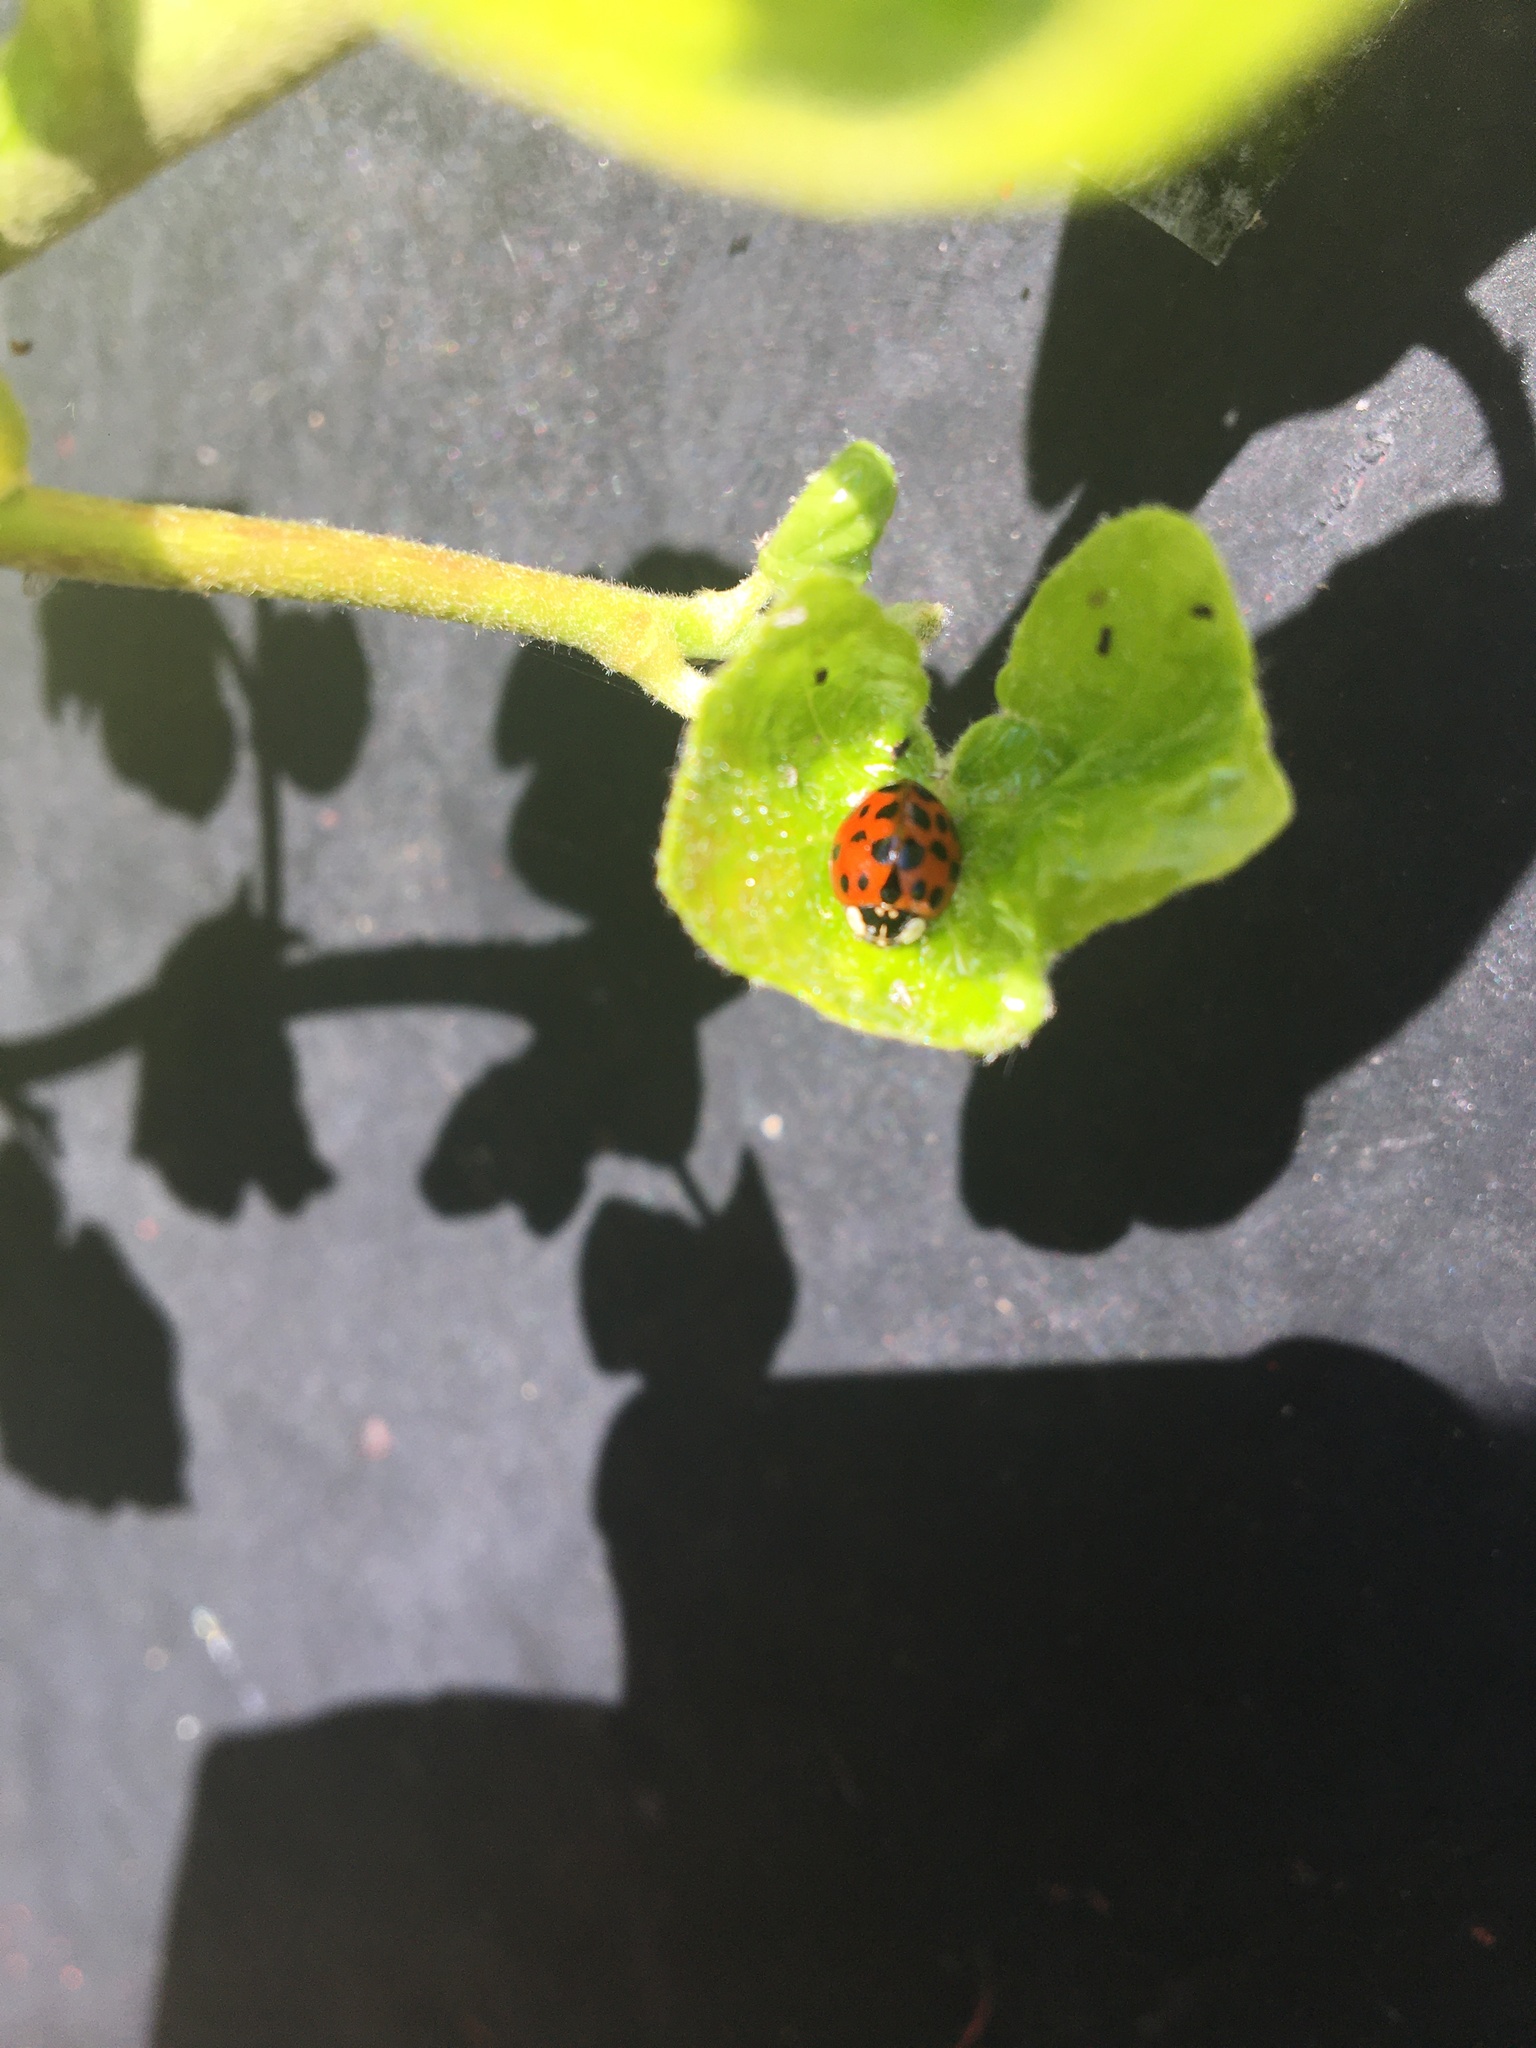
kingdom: Animalia
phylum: Arthropoda
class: Insecta
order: Coleoptera
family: Coccinellidae
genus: Harmonia
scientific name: Harmonia axyridis
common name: Harlequin ladybird
